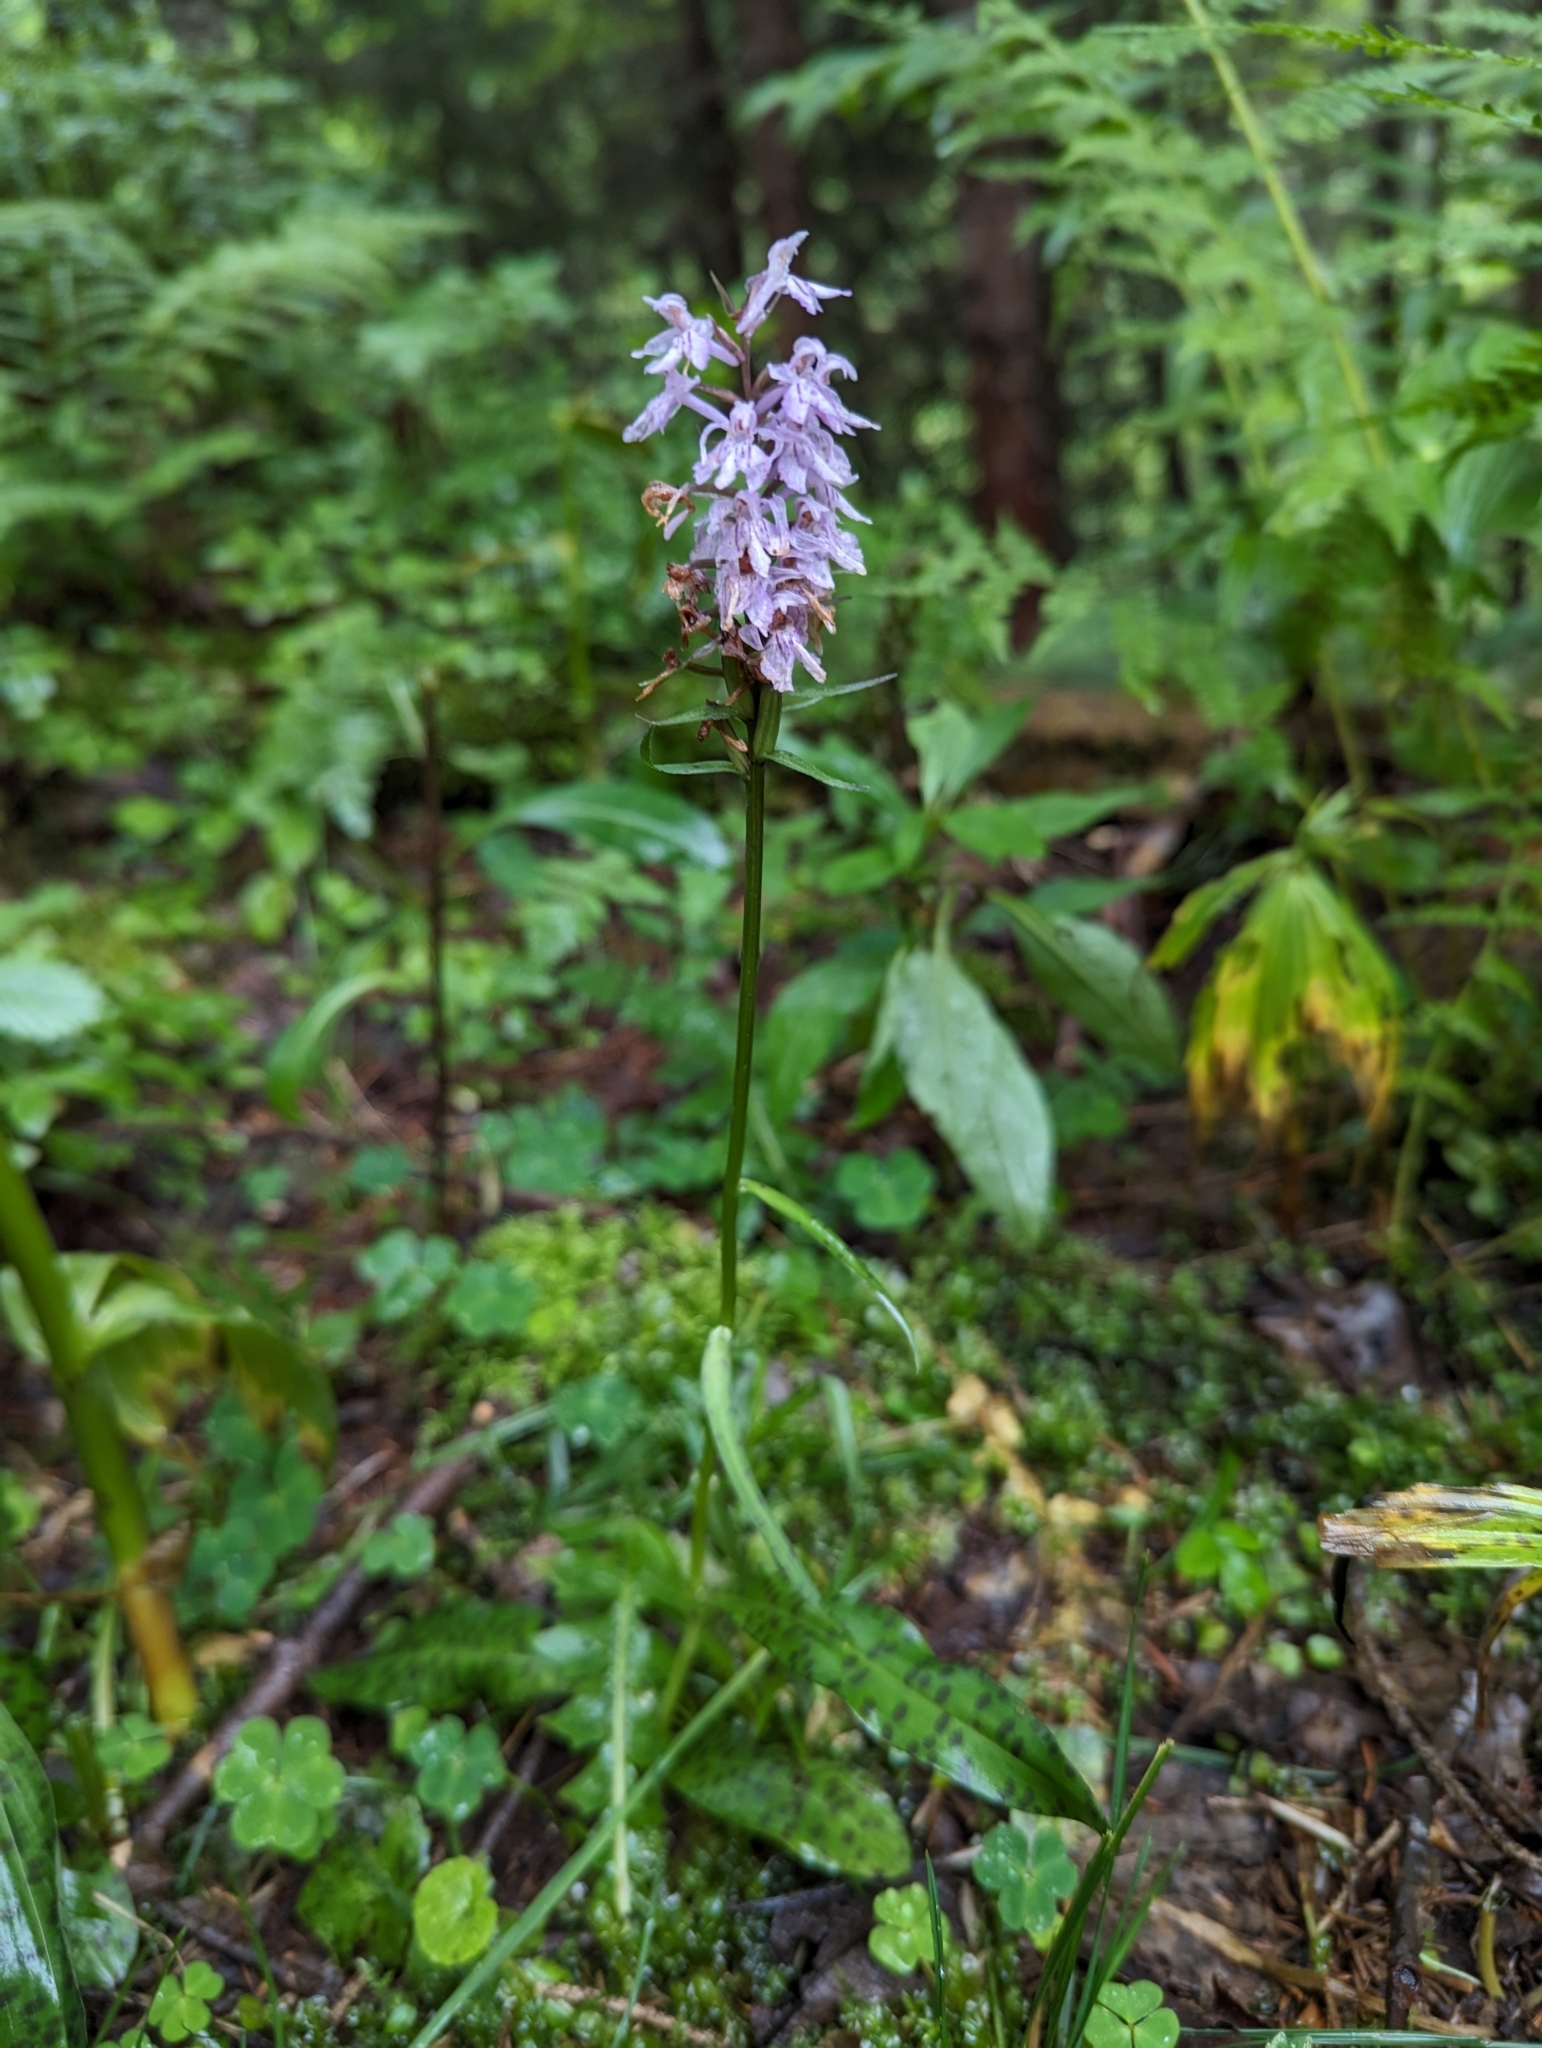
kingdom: Plantae
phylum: Tracheophyta
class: Liliopsida
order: Asparagales
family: Orchidaceae
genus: Dactylorhiza
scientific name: Dactylorhiza maculata
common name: Heath spotted-orchid
